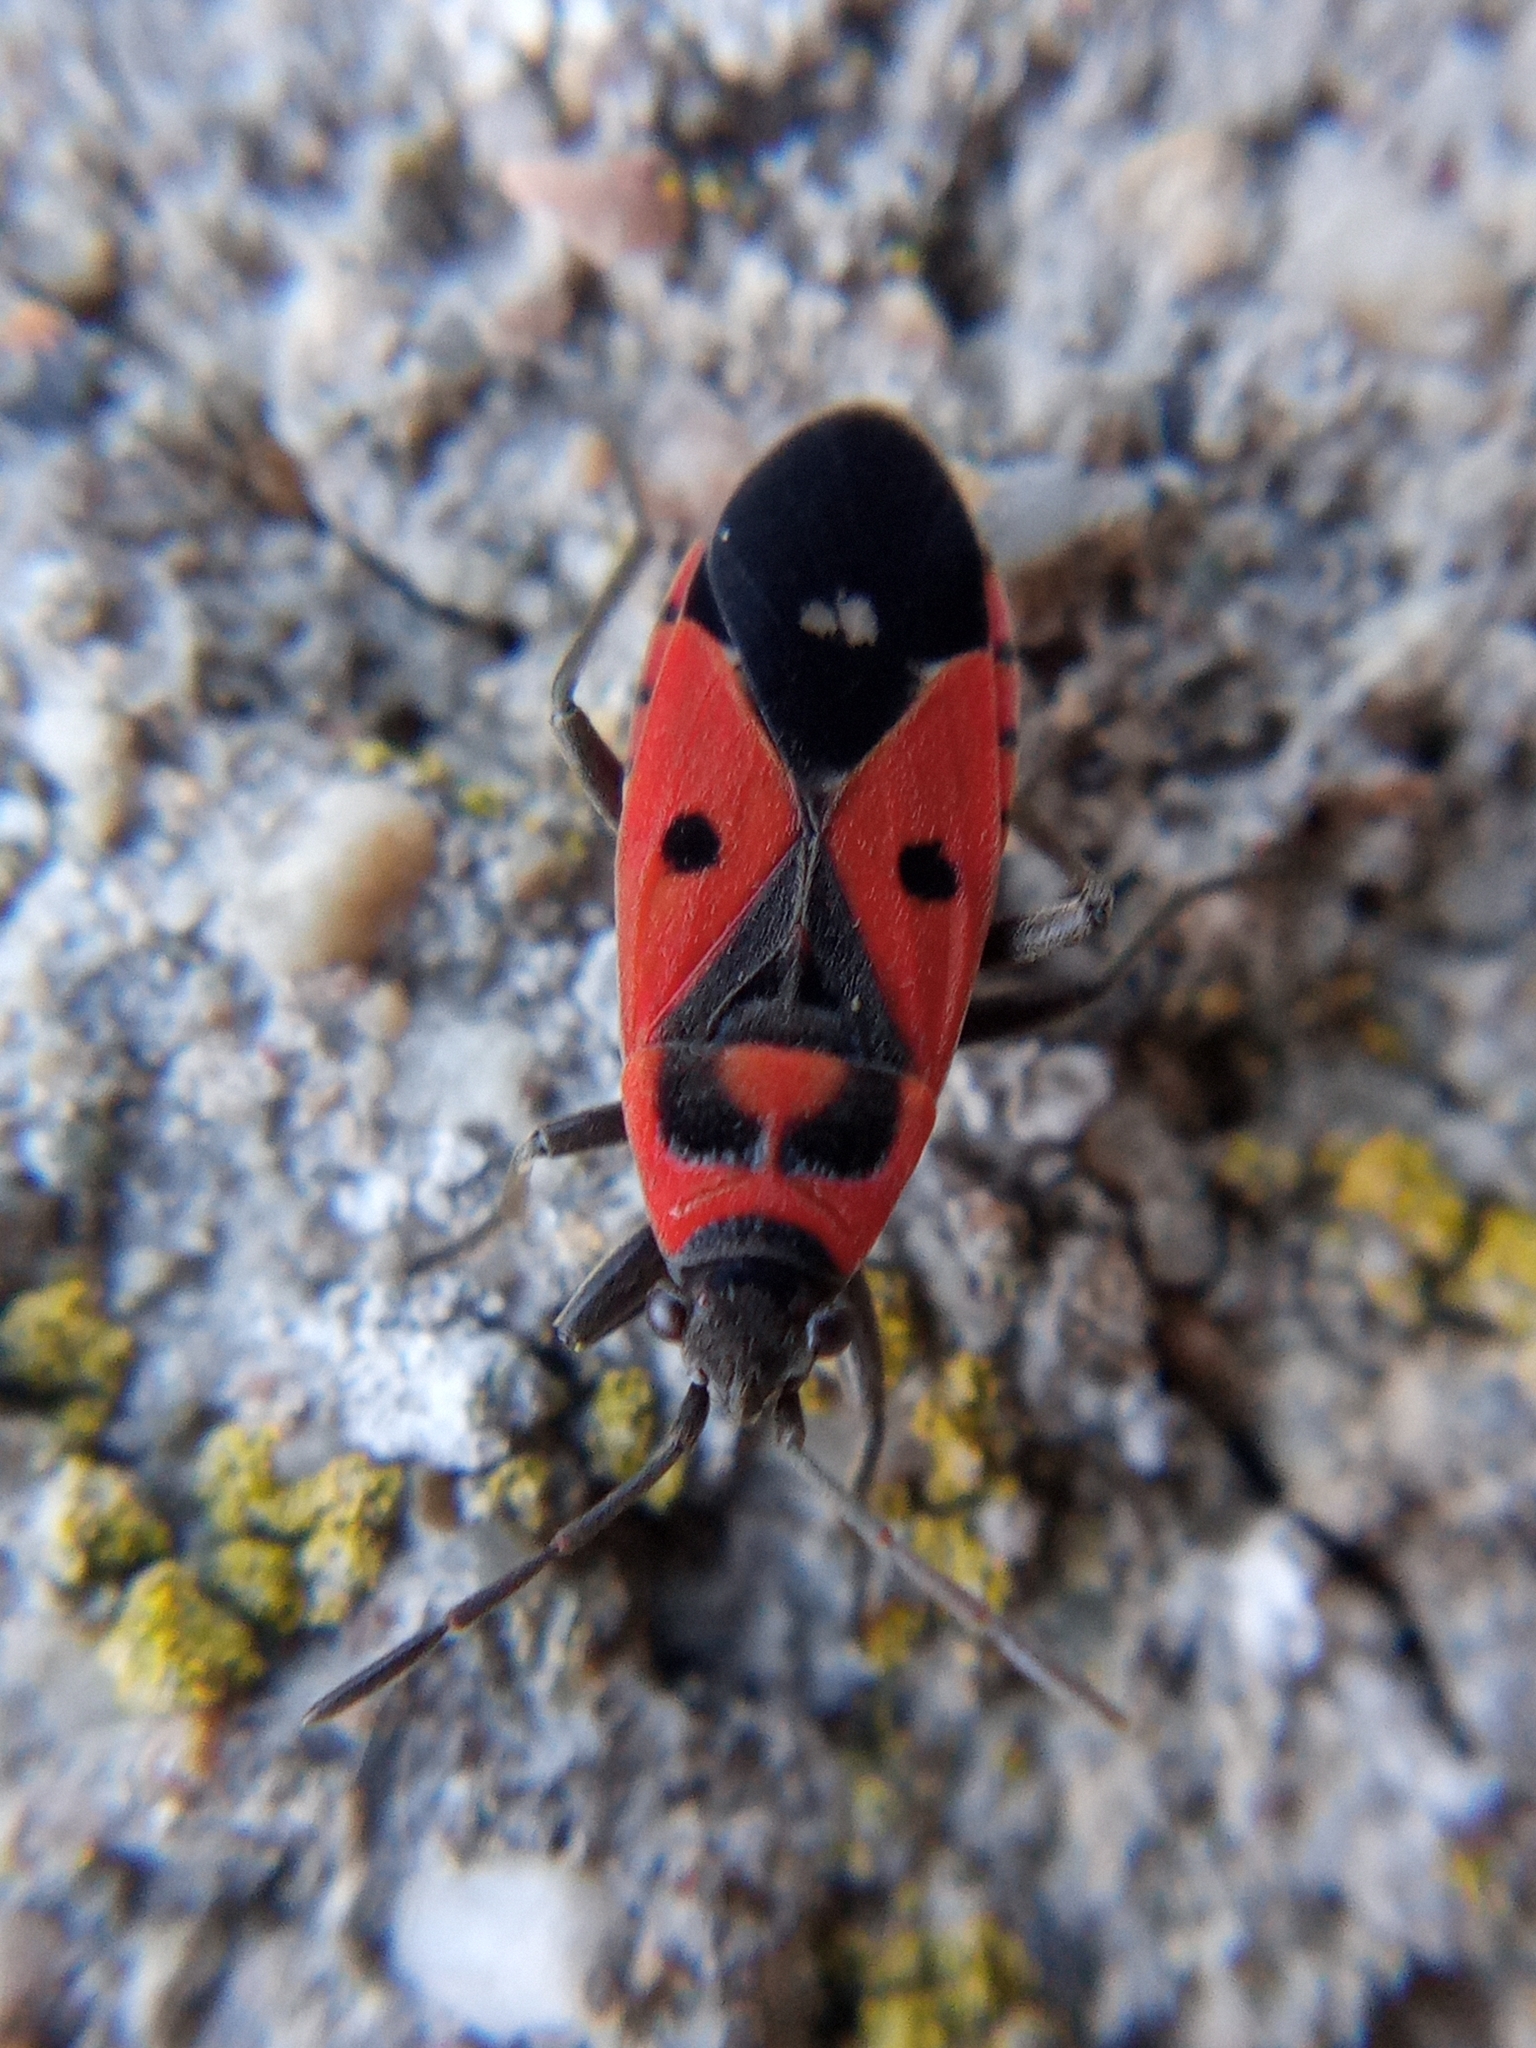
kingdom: Animalia
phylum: Arthropoda
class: Insecta
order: Hemiptera
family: Lygaeidae
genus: Melanocoryphus
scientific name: Melanocoryphus albomaculatus
